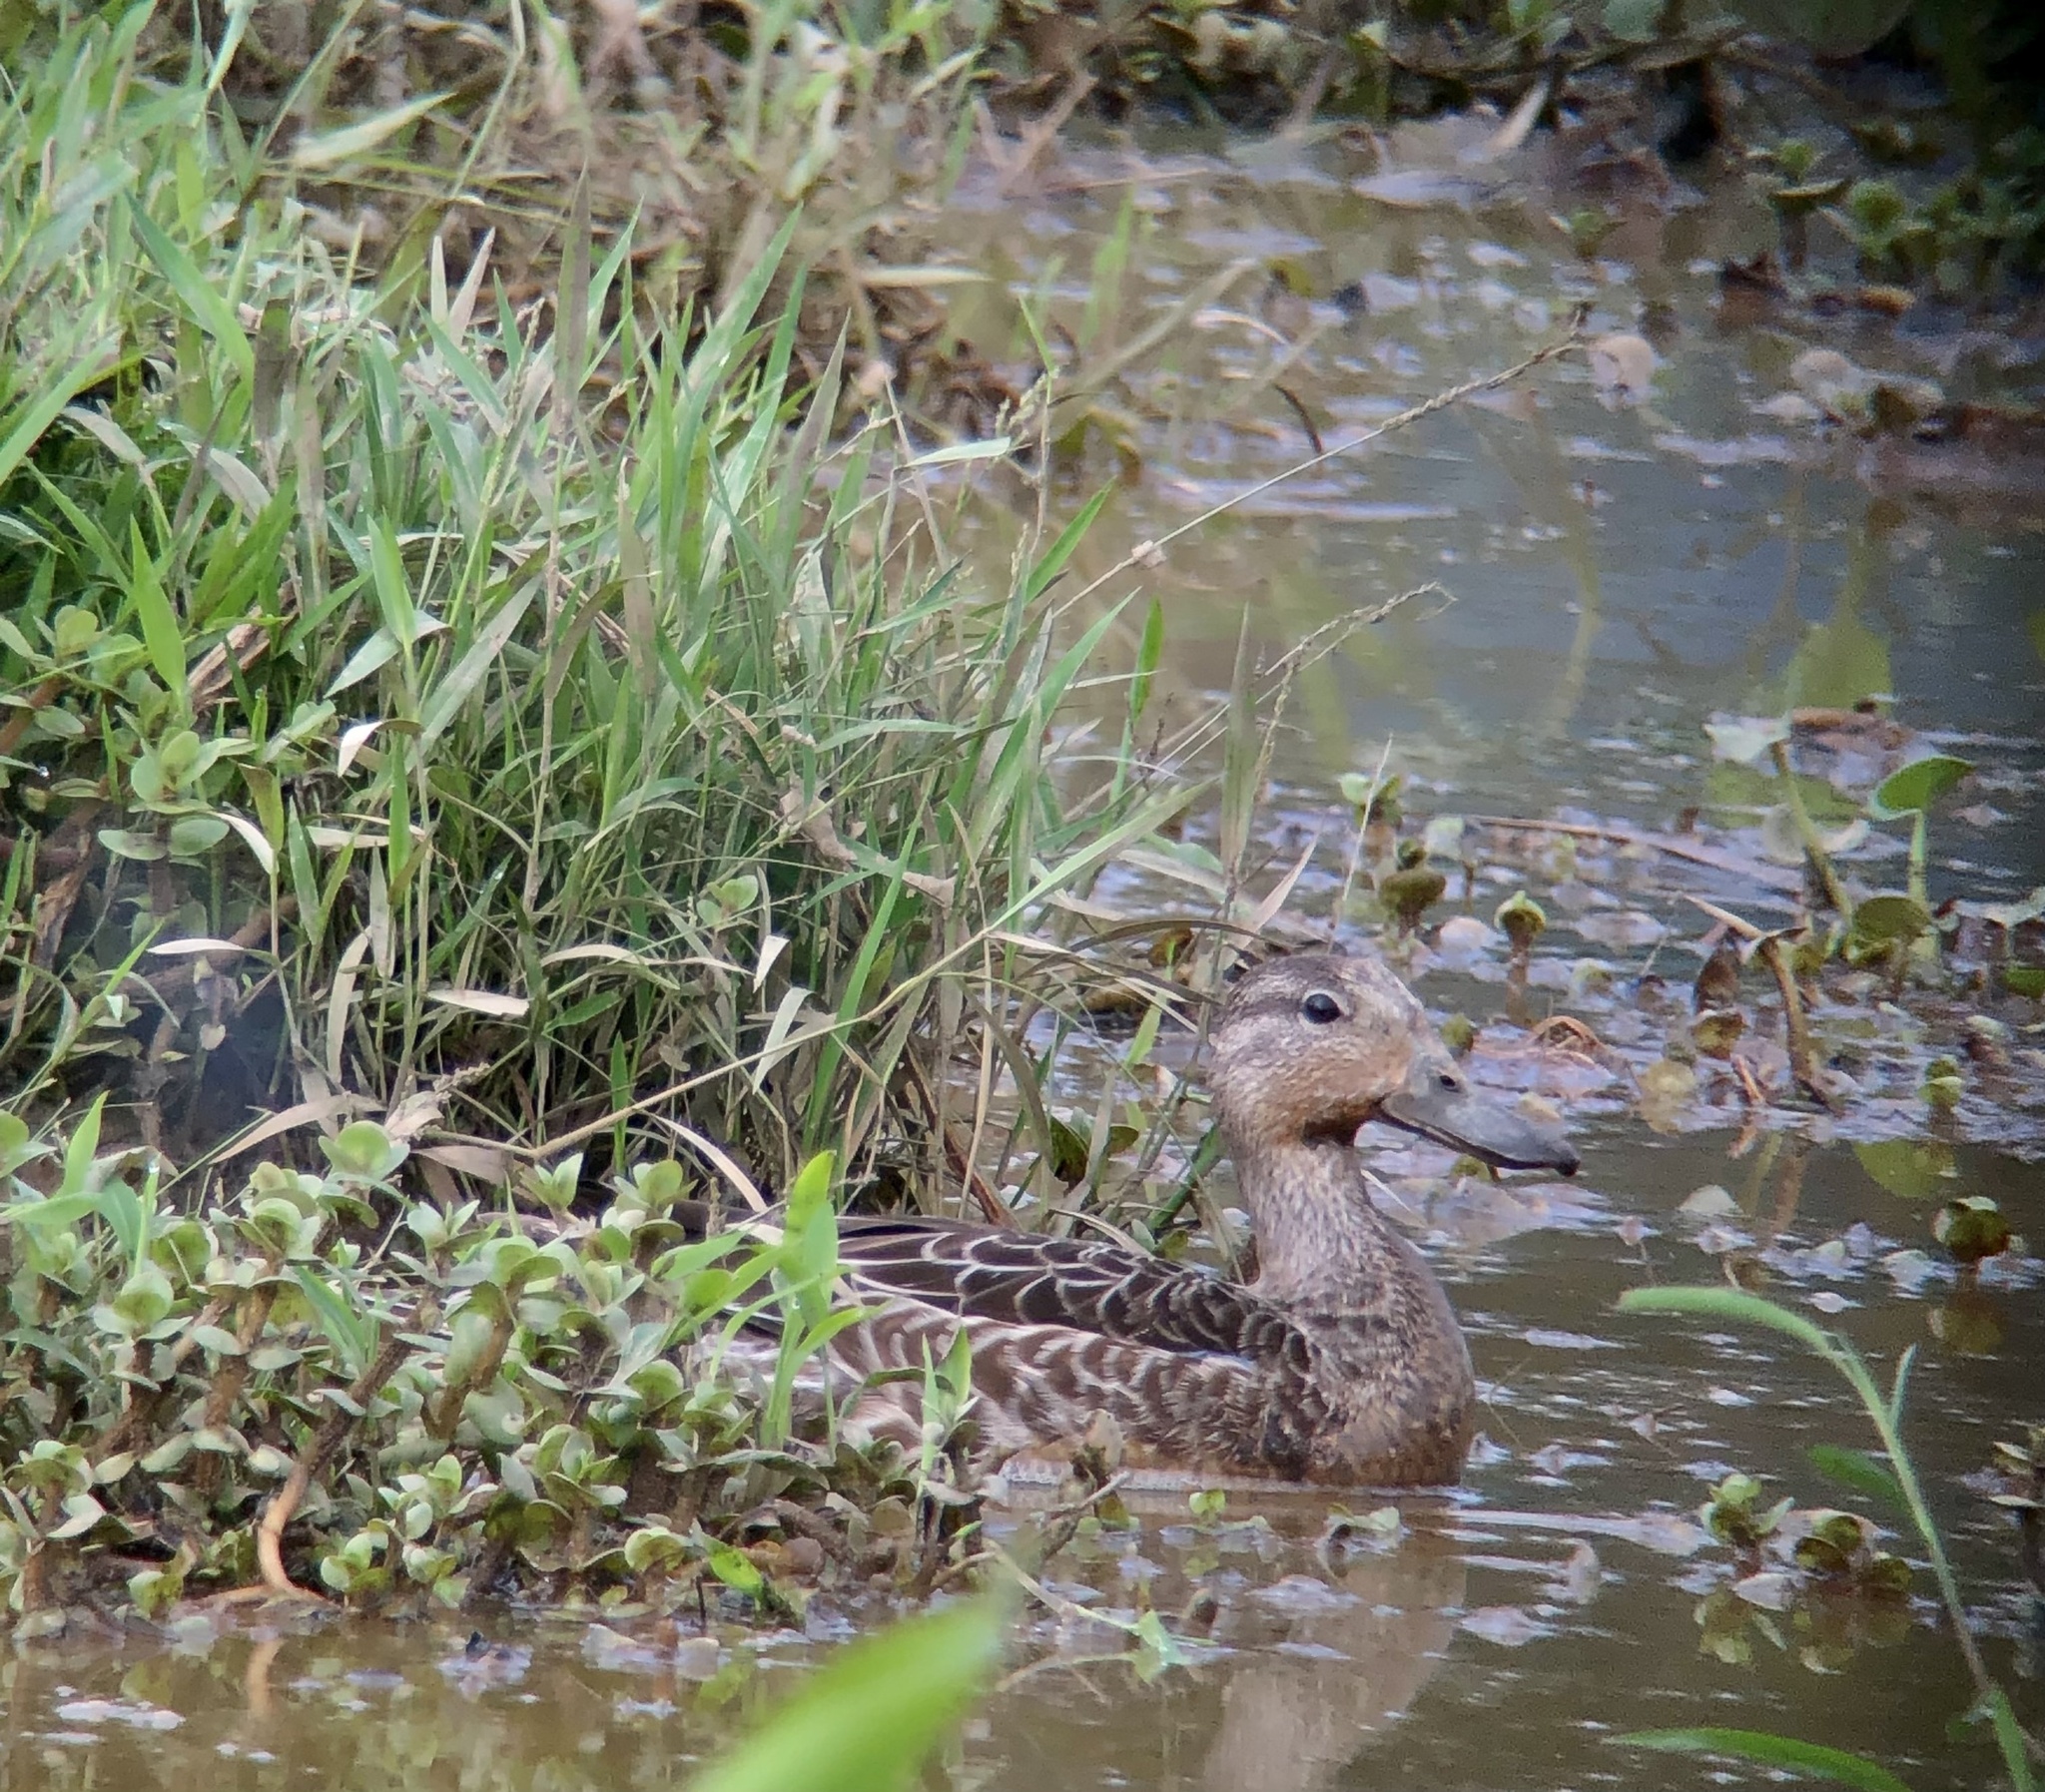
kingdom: Animalia
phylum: Chordata
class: Aves
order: Anseriformes
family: Anatidae
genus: Spatula
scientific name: Spatula discors
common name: Blue-winged teal
